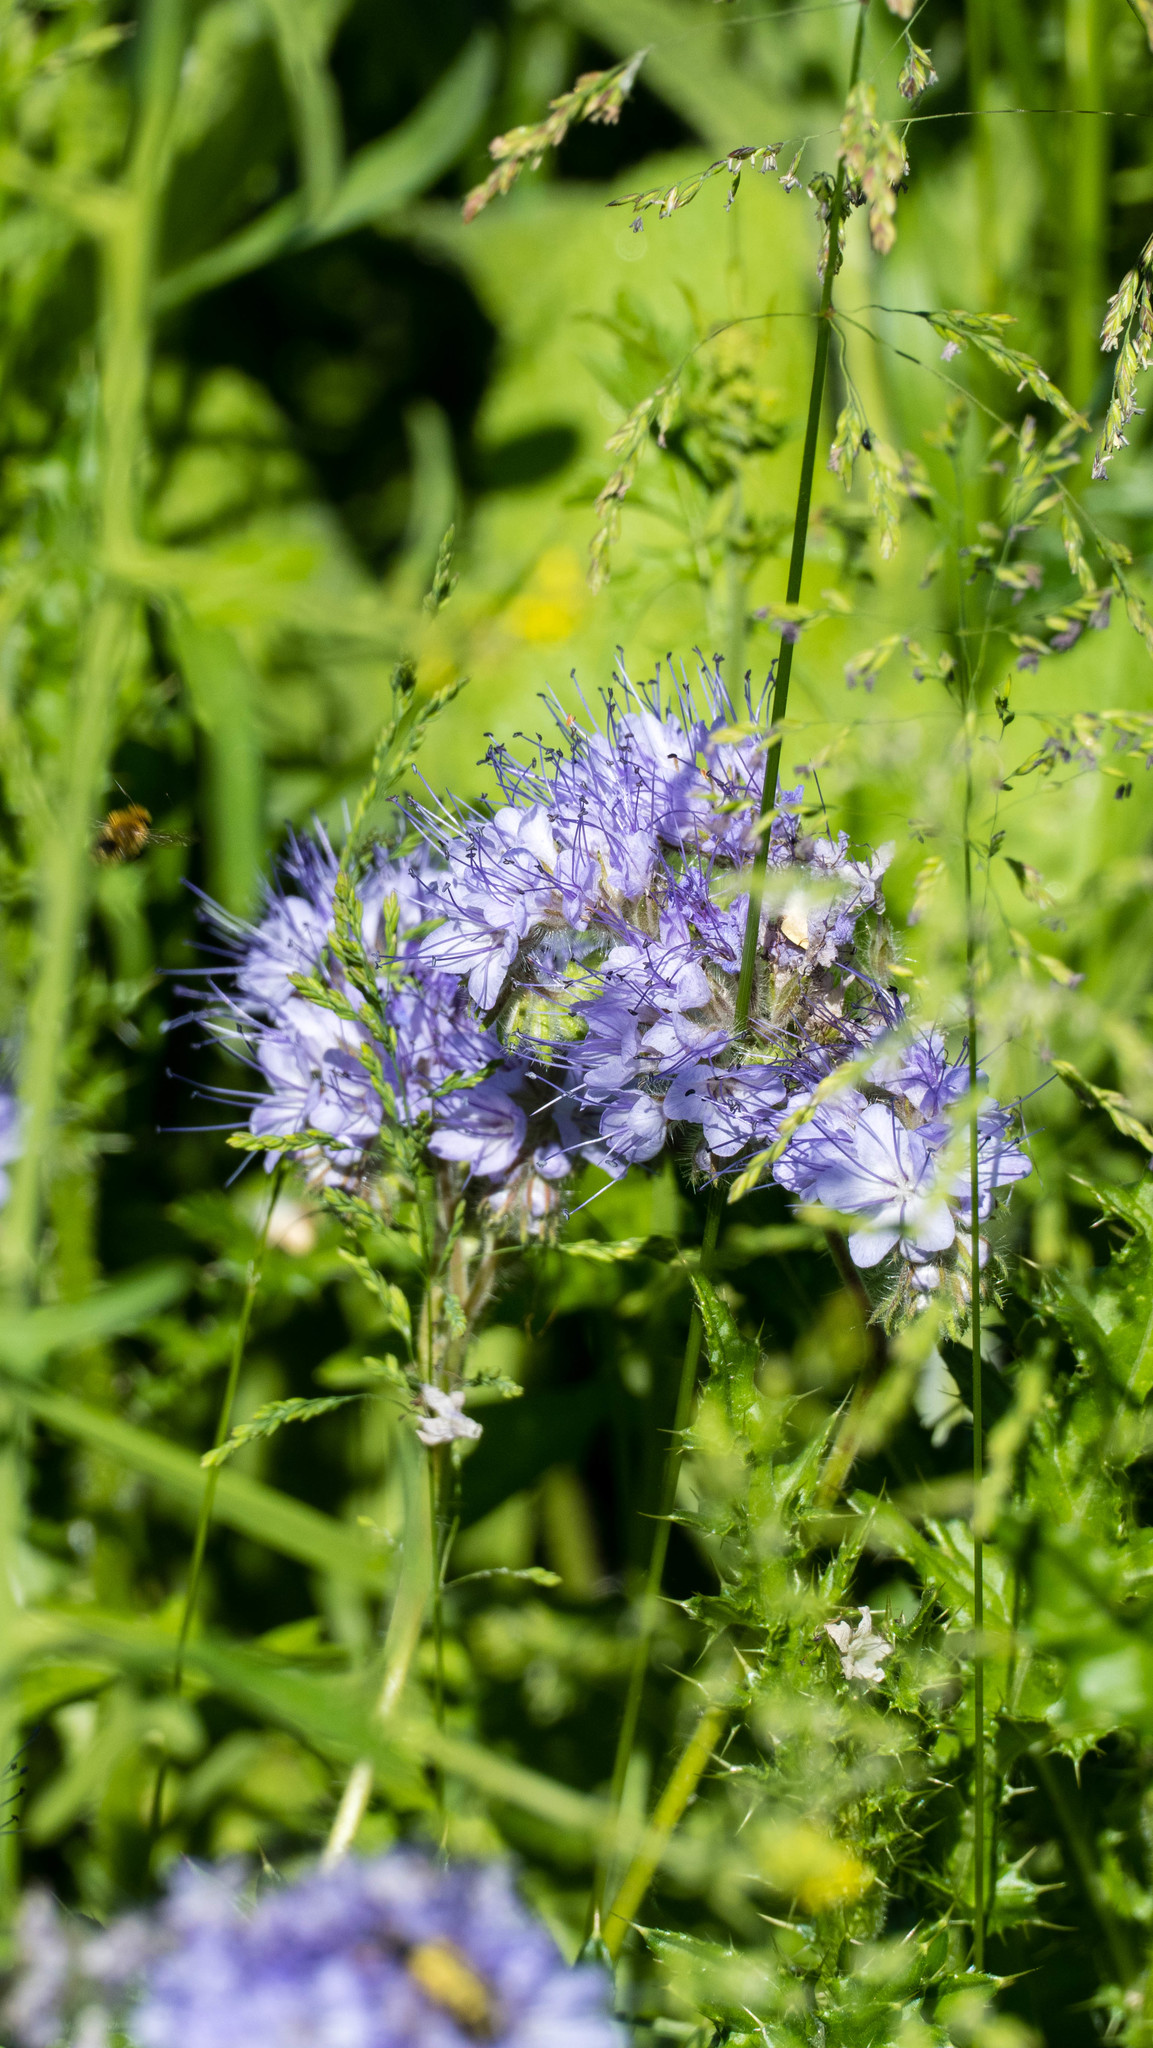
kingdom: Plantae
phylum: Tracheophyta
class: Magnoliopsida
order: Boraginales
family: Hydrophyllaceae
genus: Phacelia
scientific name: Phacelia tanacetifolia
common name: Phacelia
